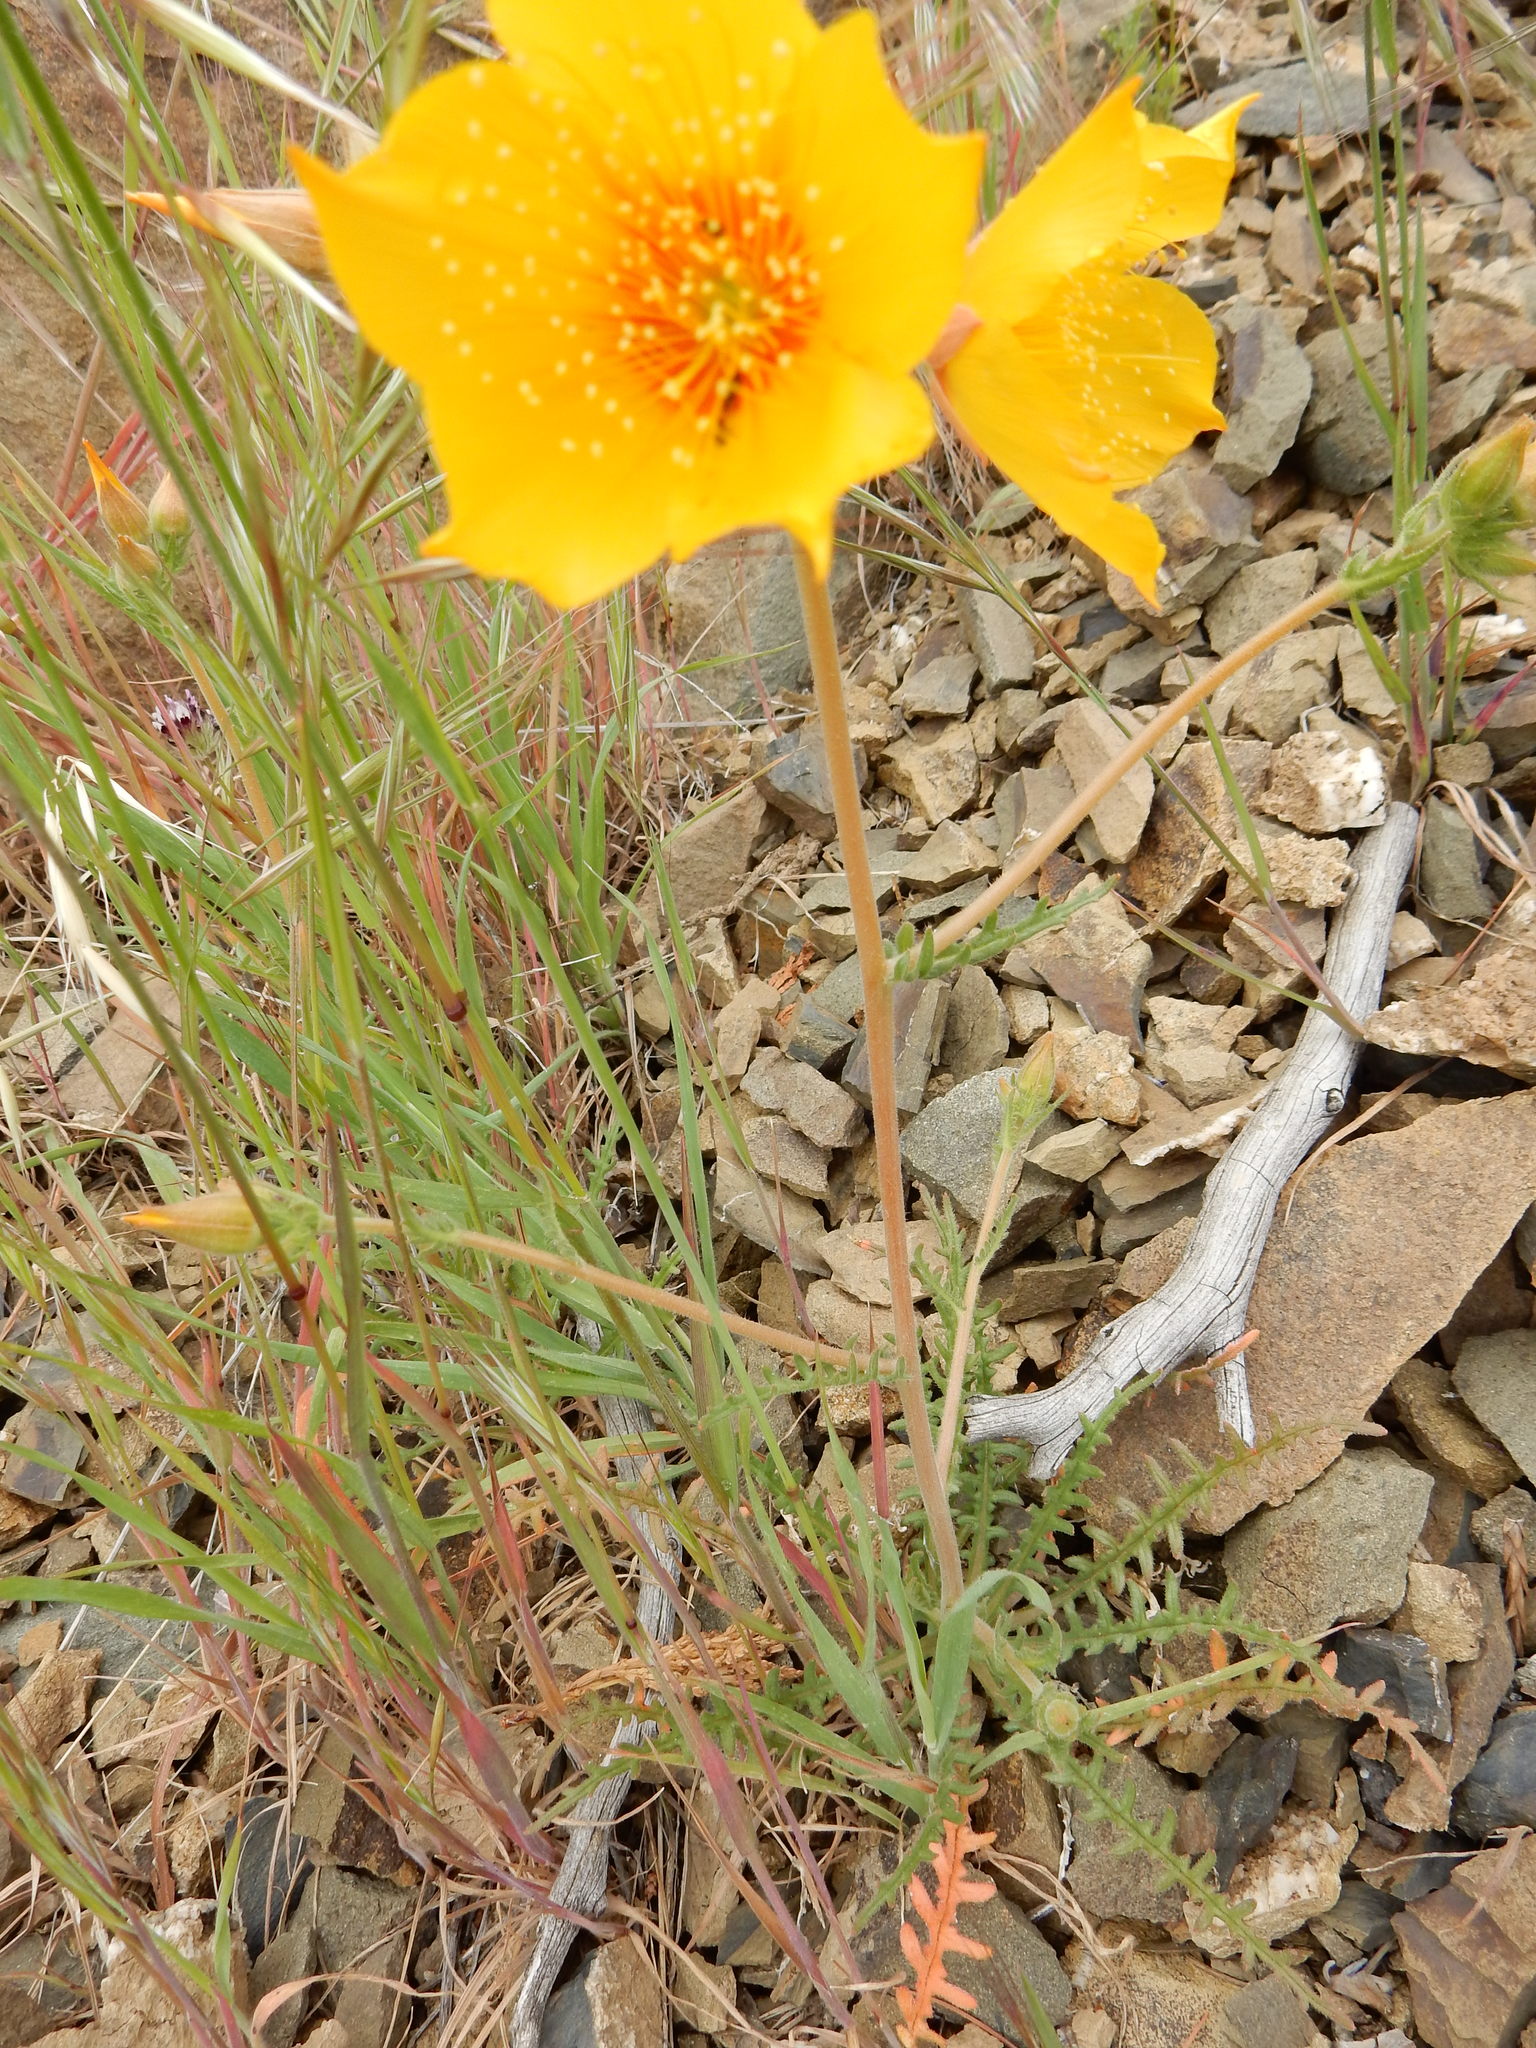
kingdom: Plantae
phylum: Tracheophyta
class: Magnoliopsida
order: Cornales
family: Loasaceae
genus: Mentzelia
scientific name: Mentzelia lindleyi
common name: Golden bartonia
